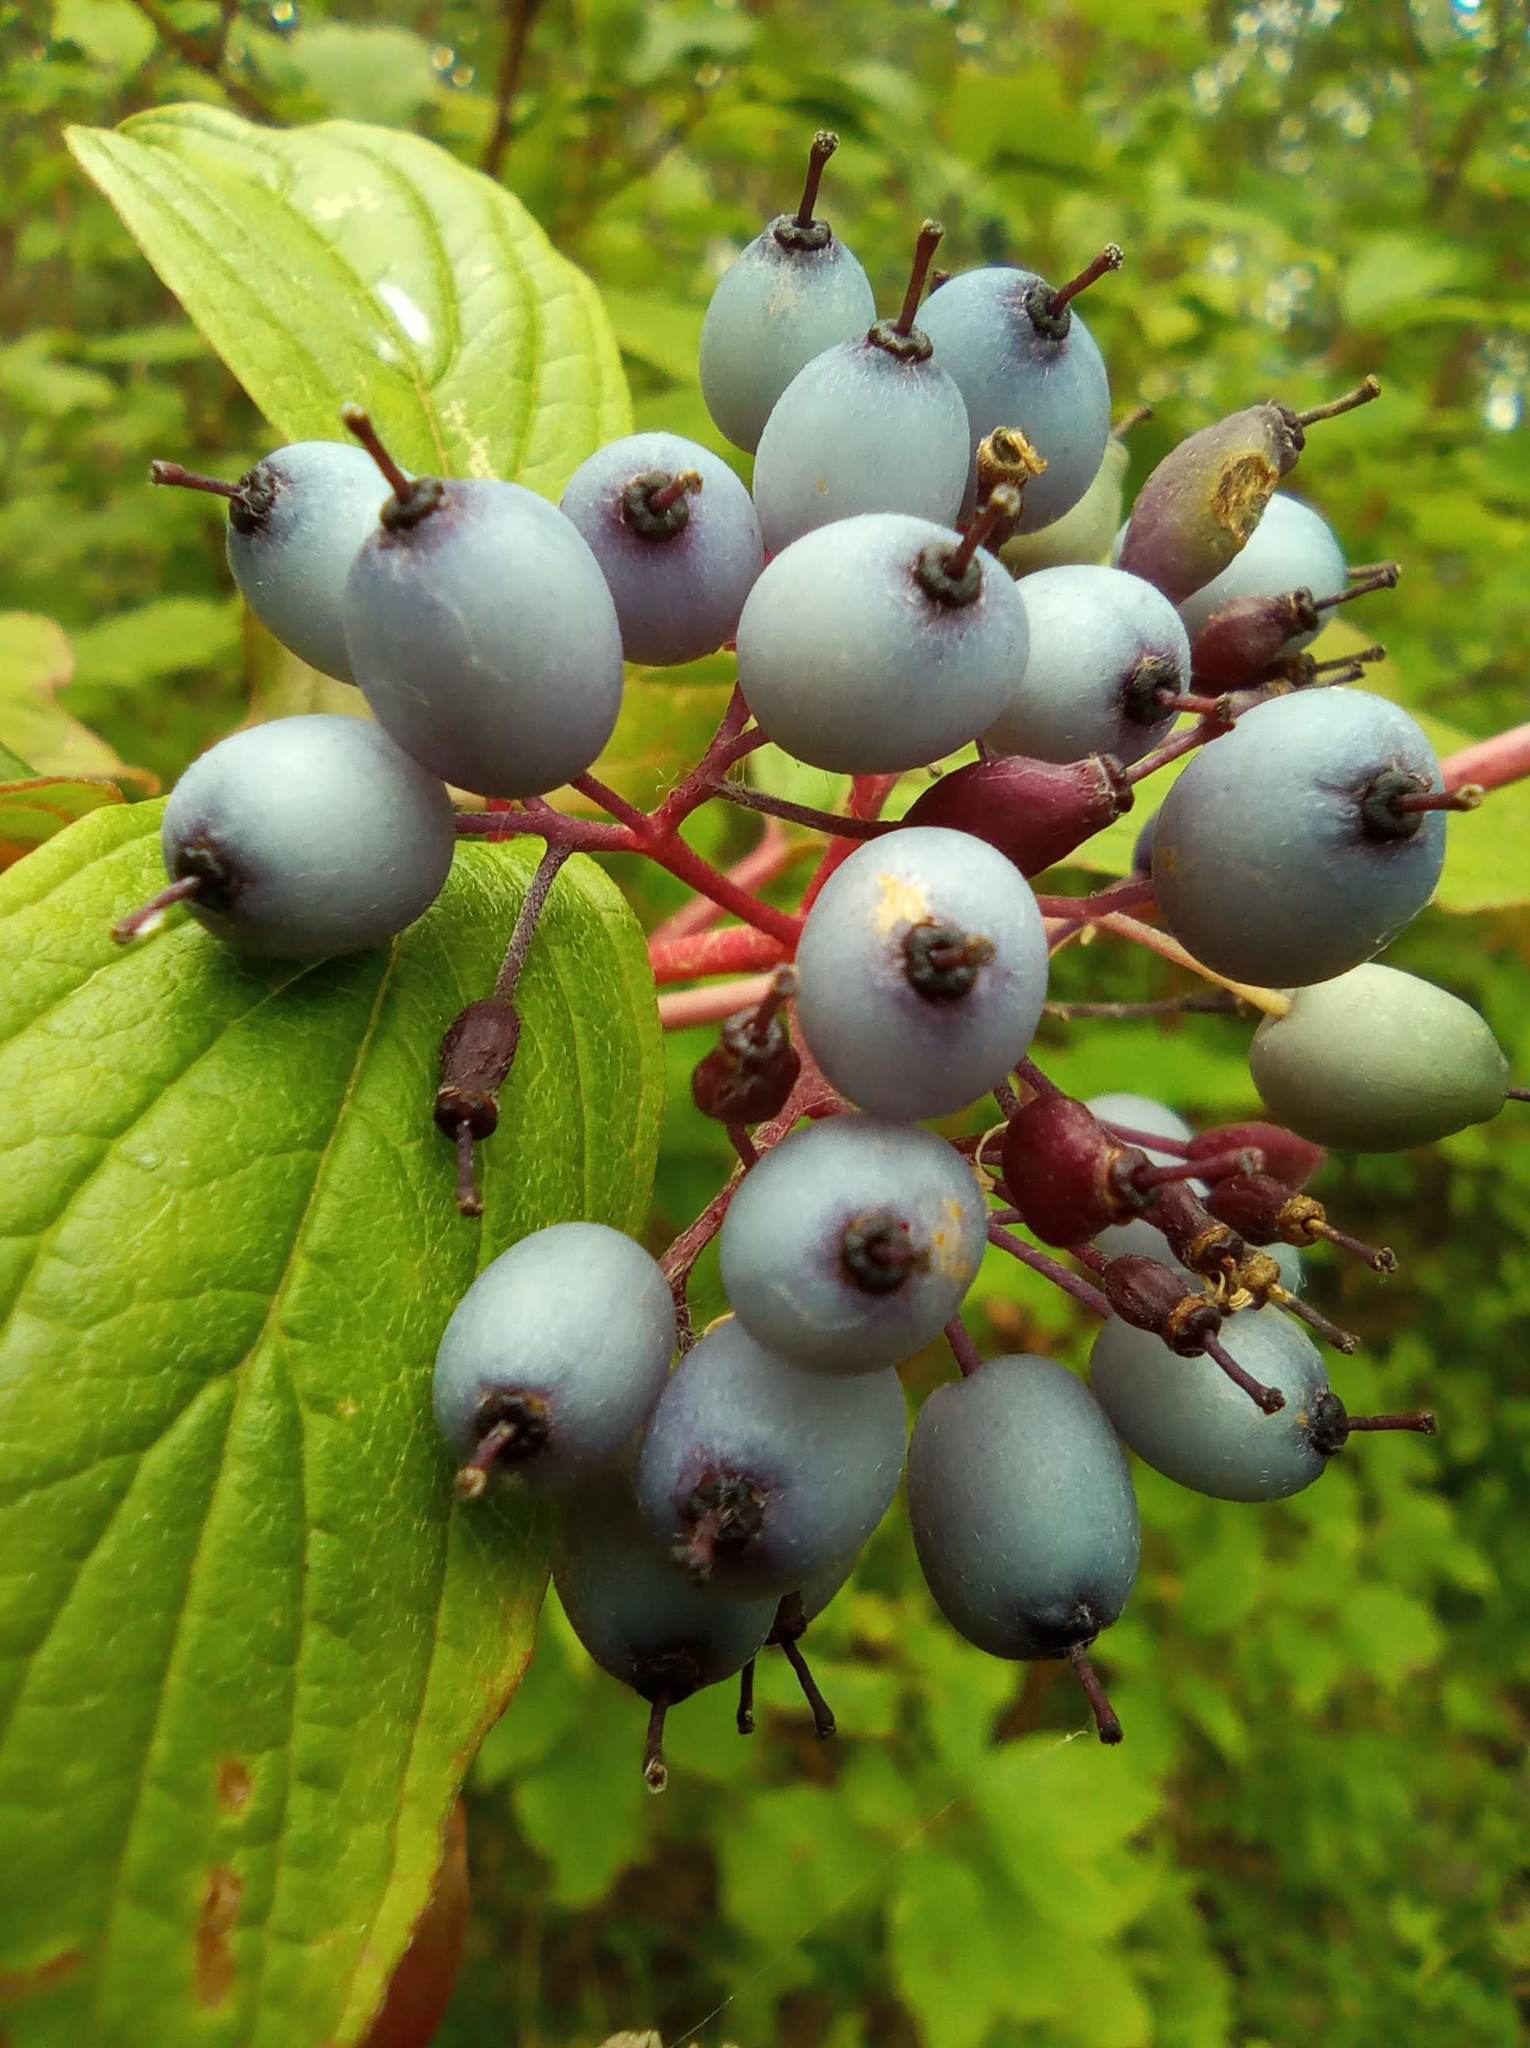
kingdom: Plantae
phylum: Tracheophyta
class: Magnoliopsida
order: Cornales
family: Cornaceae
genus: Cornus
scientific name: Cornus alba
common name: White dogwood
